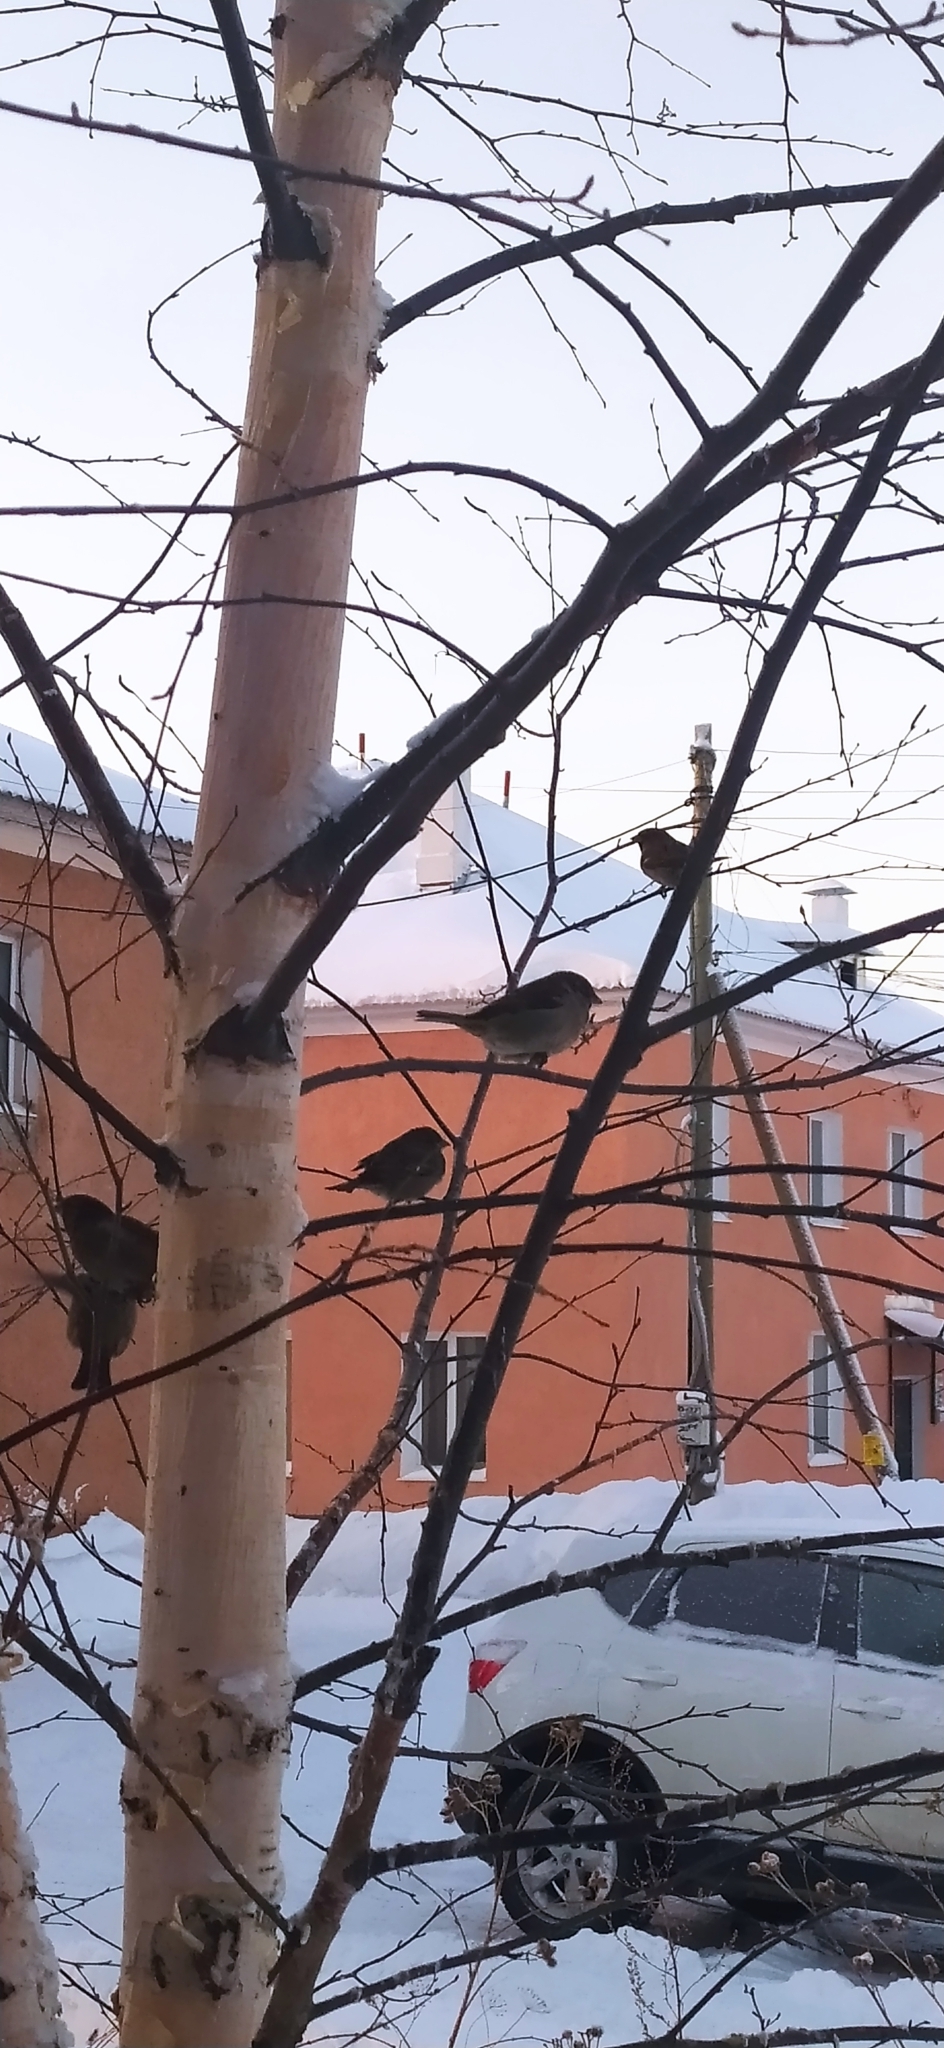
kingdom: Animalia
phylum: Chordata
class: Aves
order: Passeriformes
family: Passeridae
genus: Passer
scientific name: Passer domesticus
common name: House sparrow
